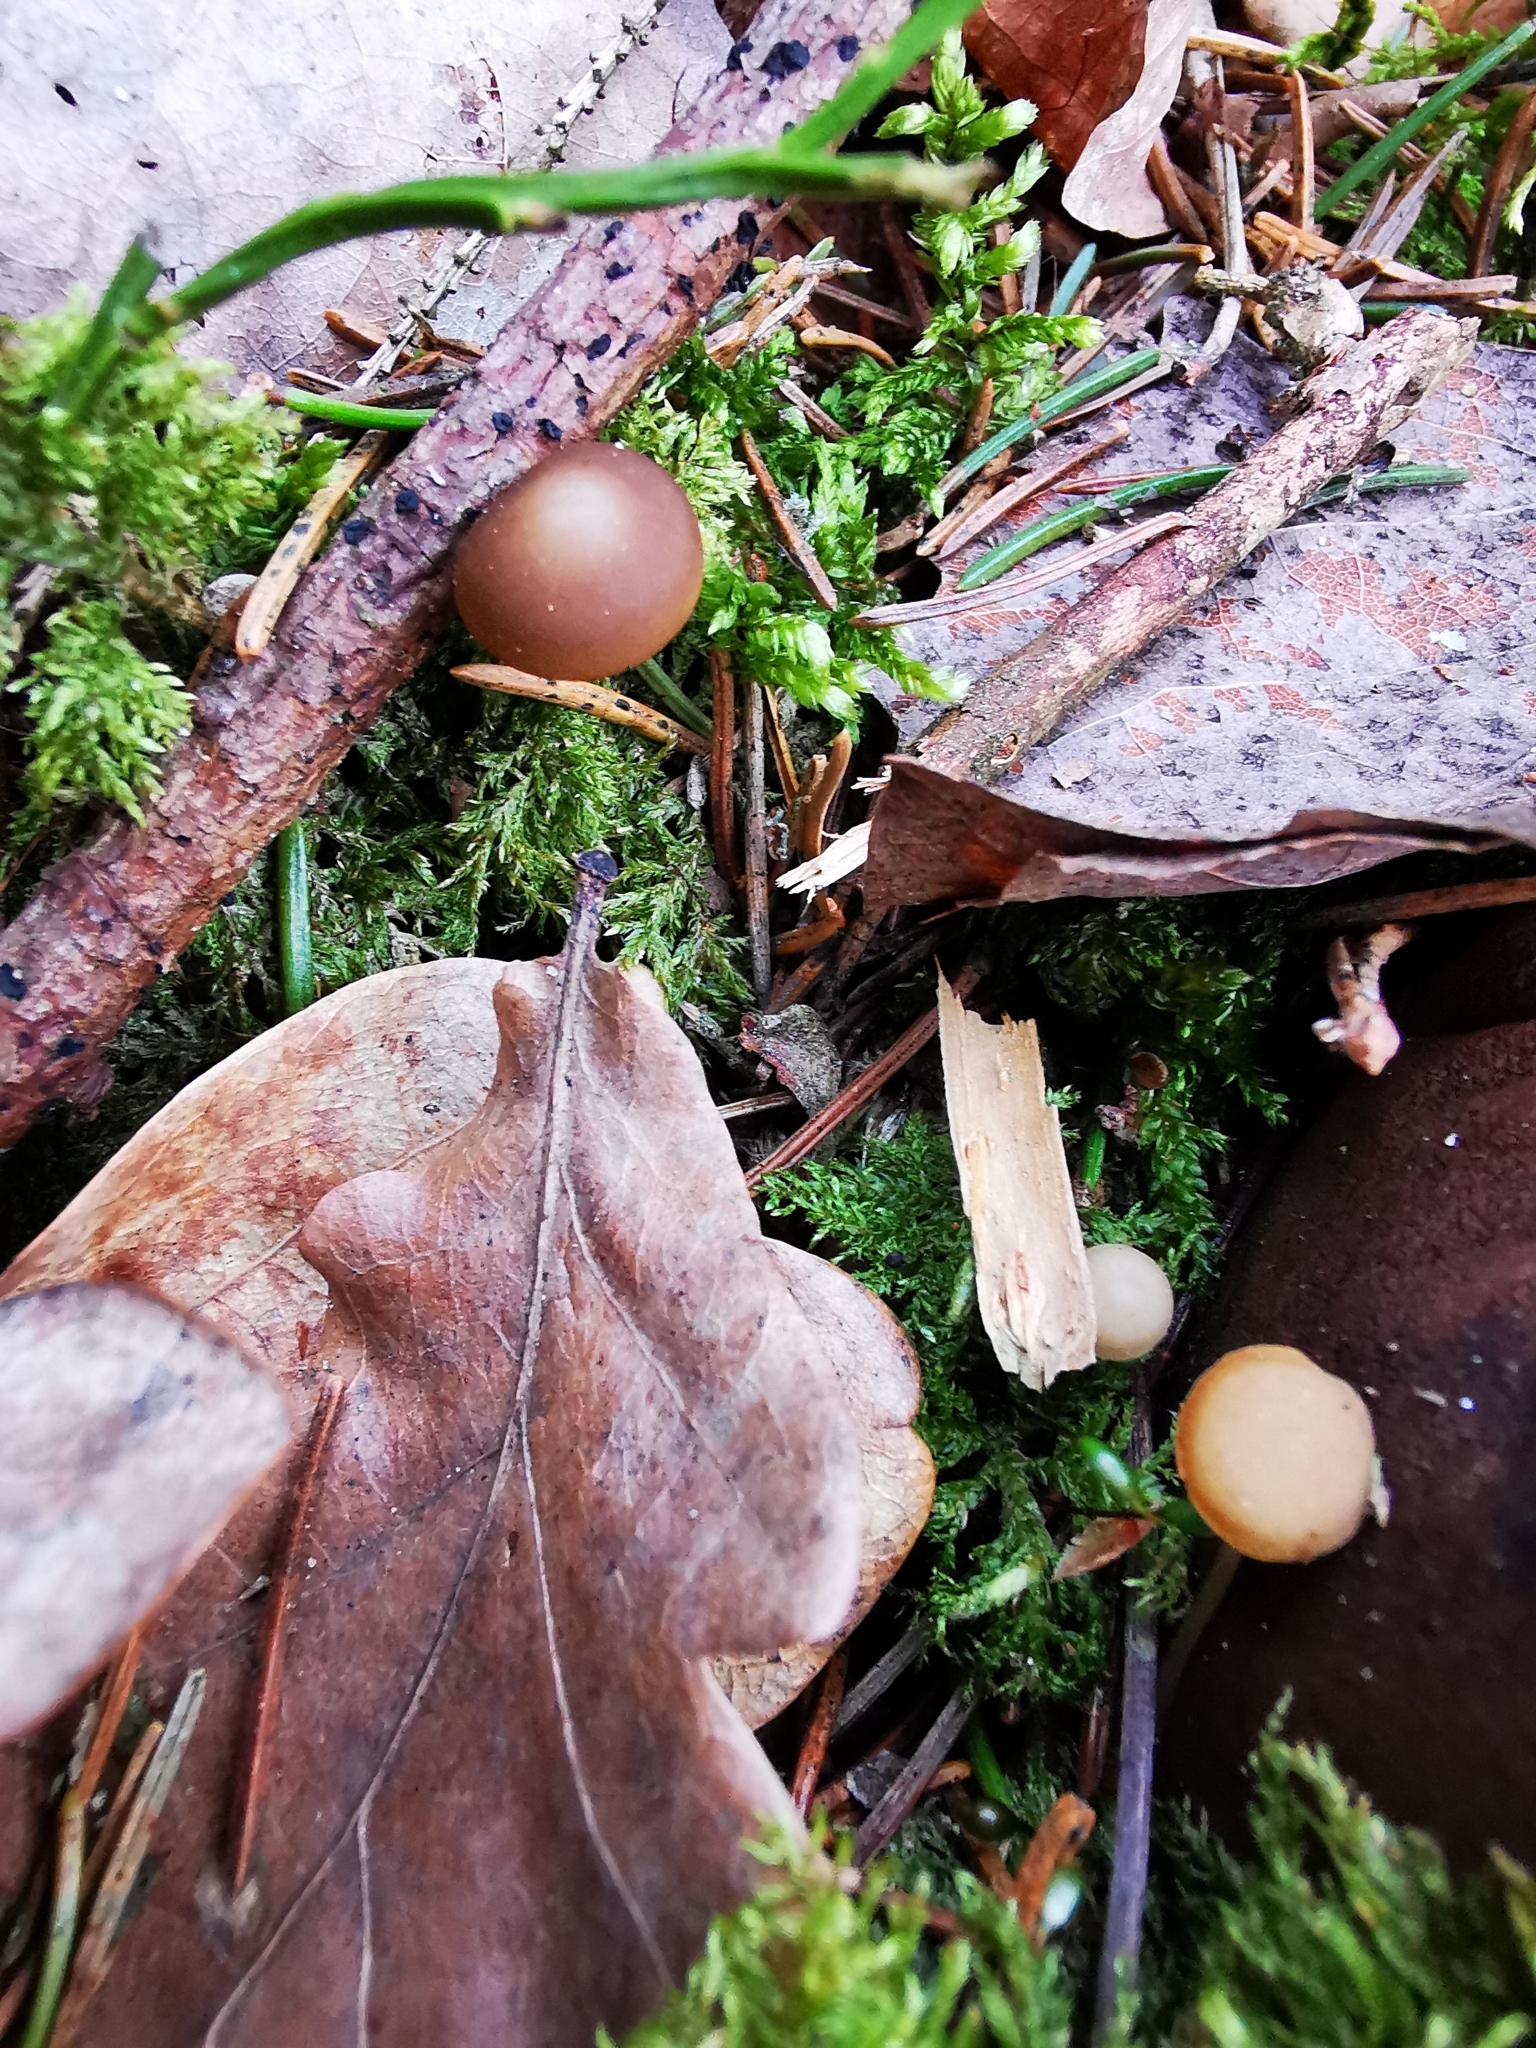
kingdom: Fungi
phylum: Basidiomycota
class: Agaricomycetes
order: Agaricales
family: Physalacriaceae
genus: Strobilurus
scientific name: Strobilurus esculentus
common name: Sprucecone cap
